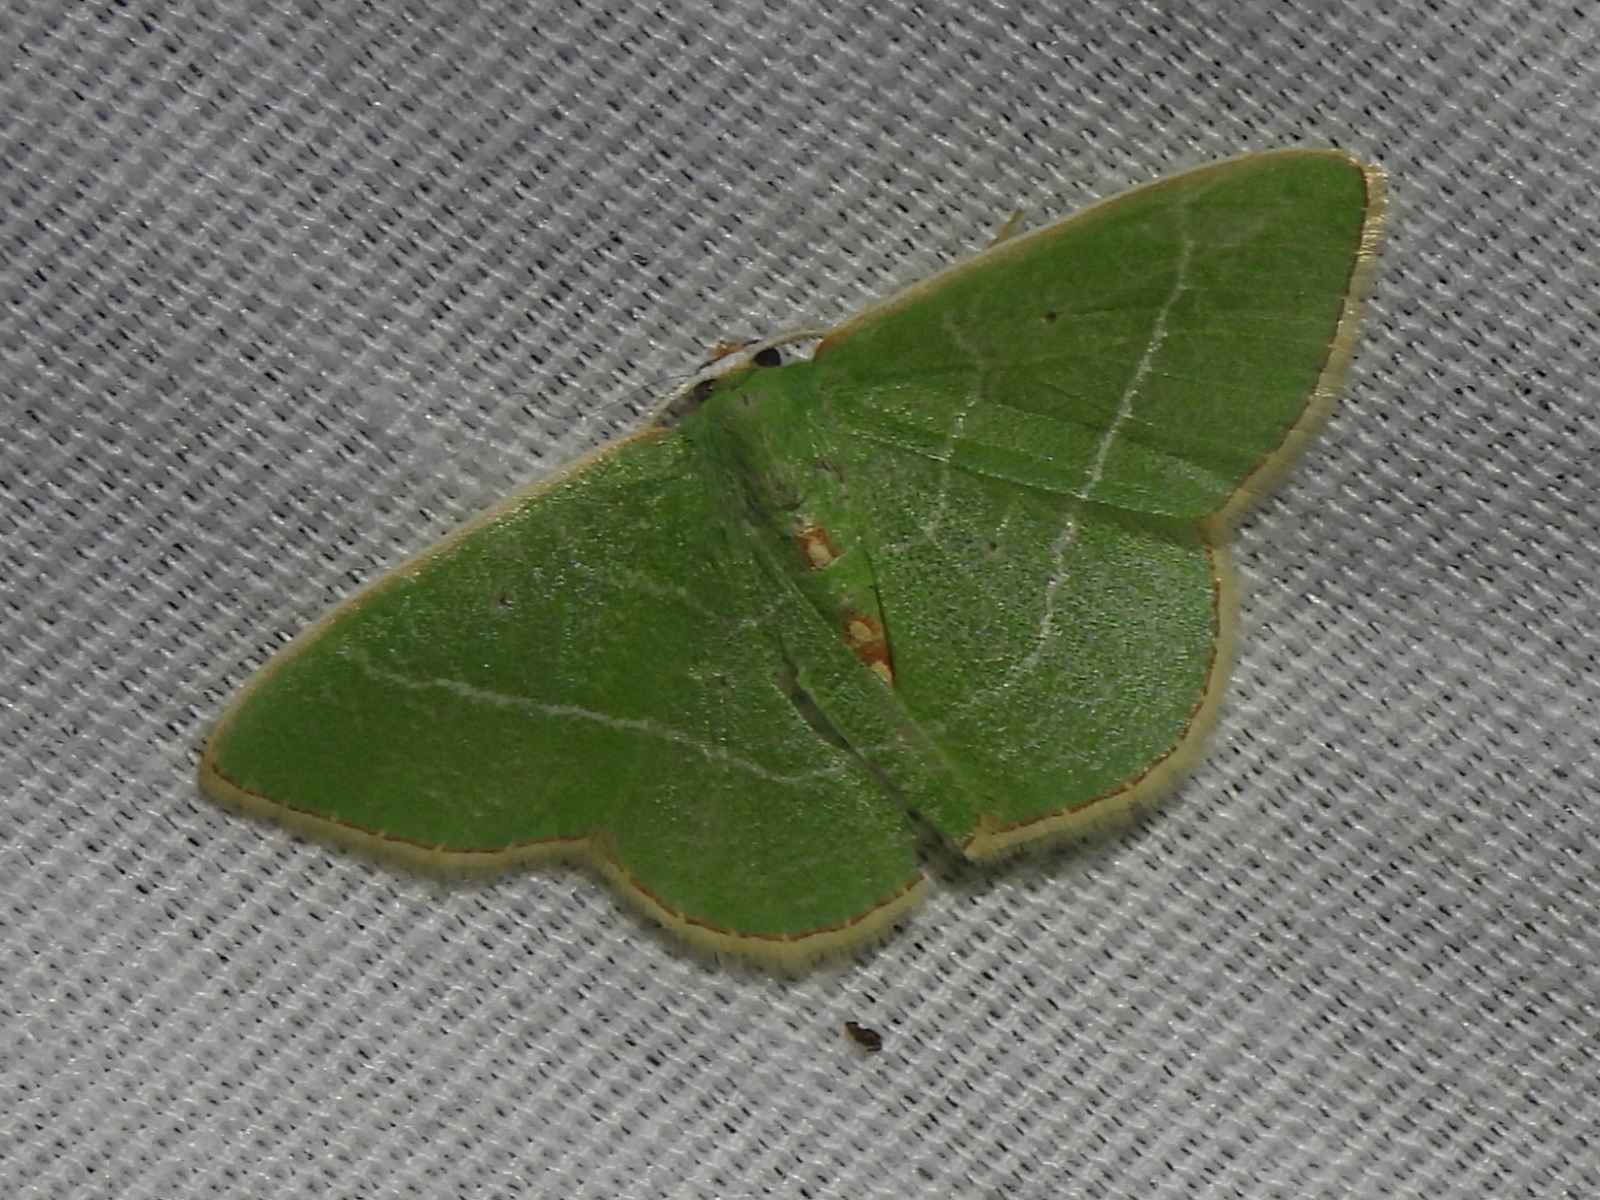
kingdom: Animalia
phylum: Arthropoda
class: Insecta
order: Lepidoptera
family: Geometridae
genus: Nemoria
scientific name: Nemoria bistriaria
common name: Red-fringed emerald
